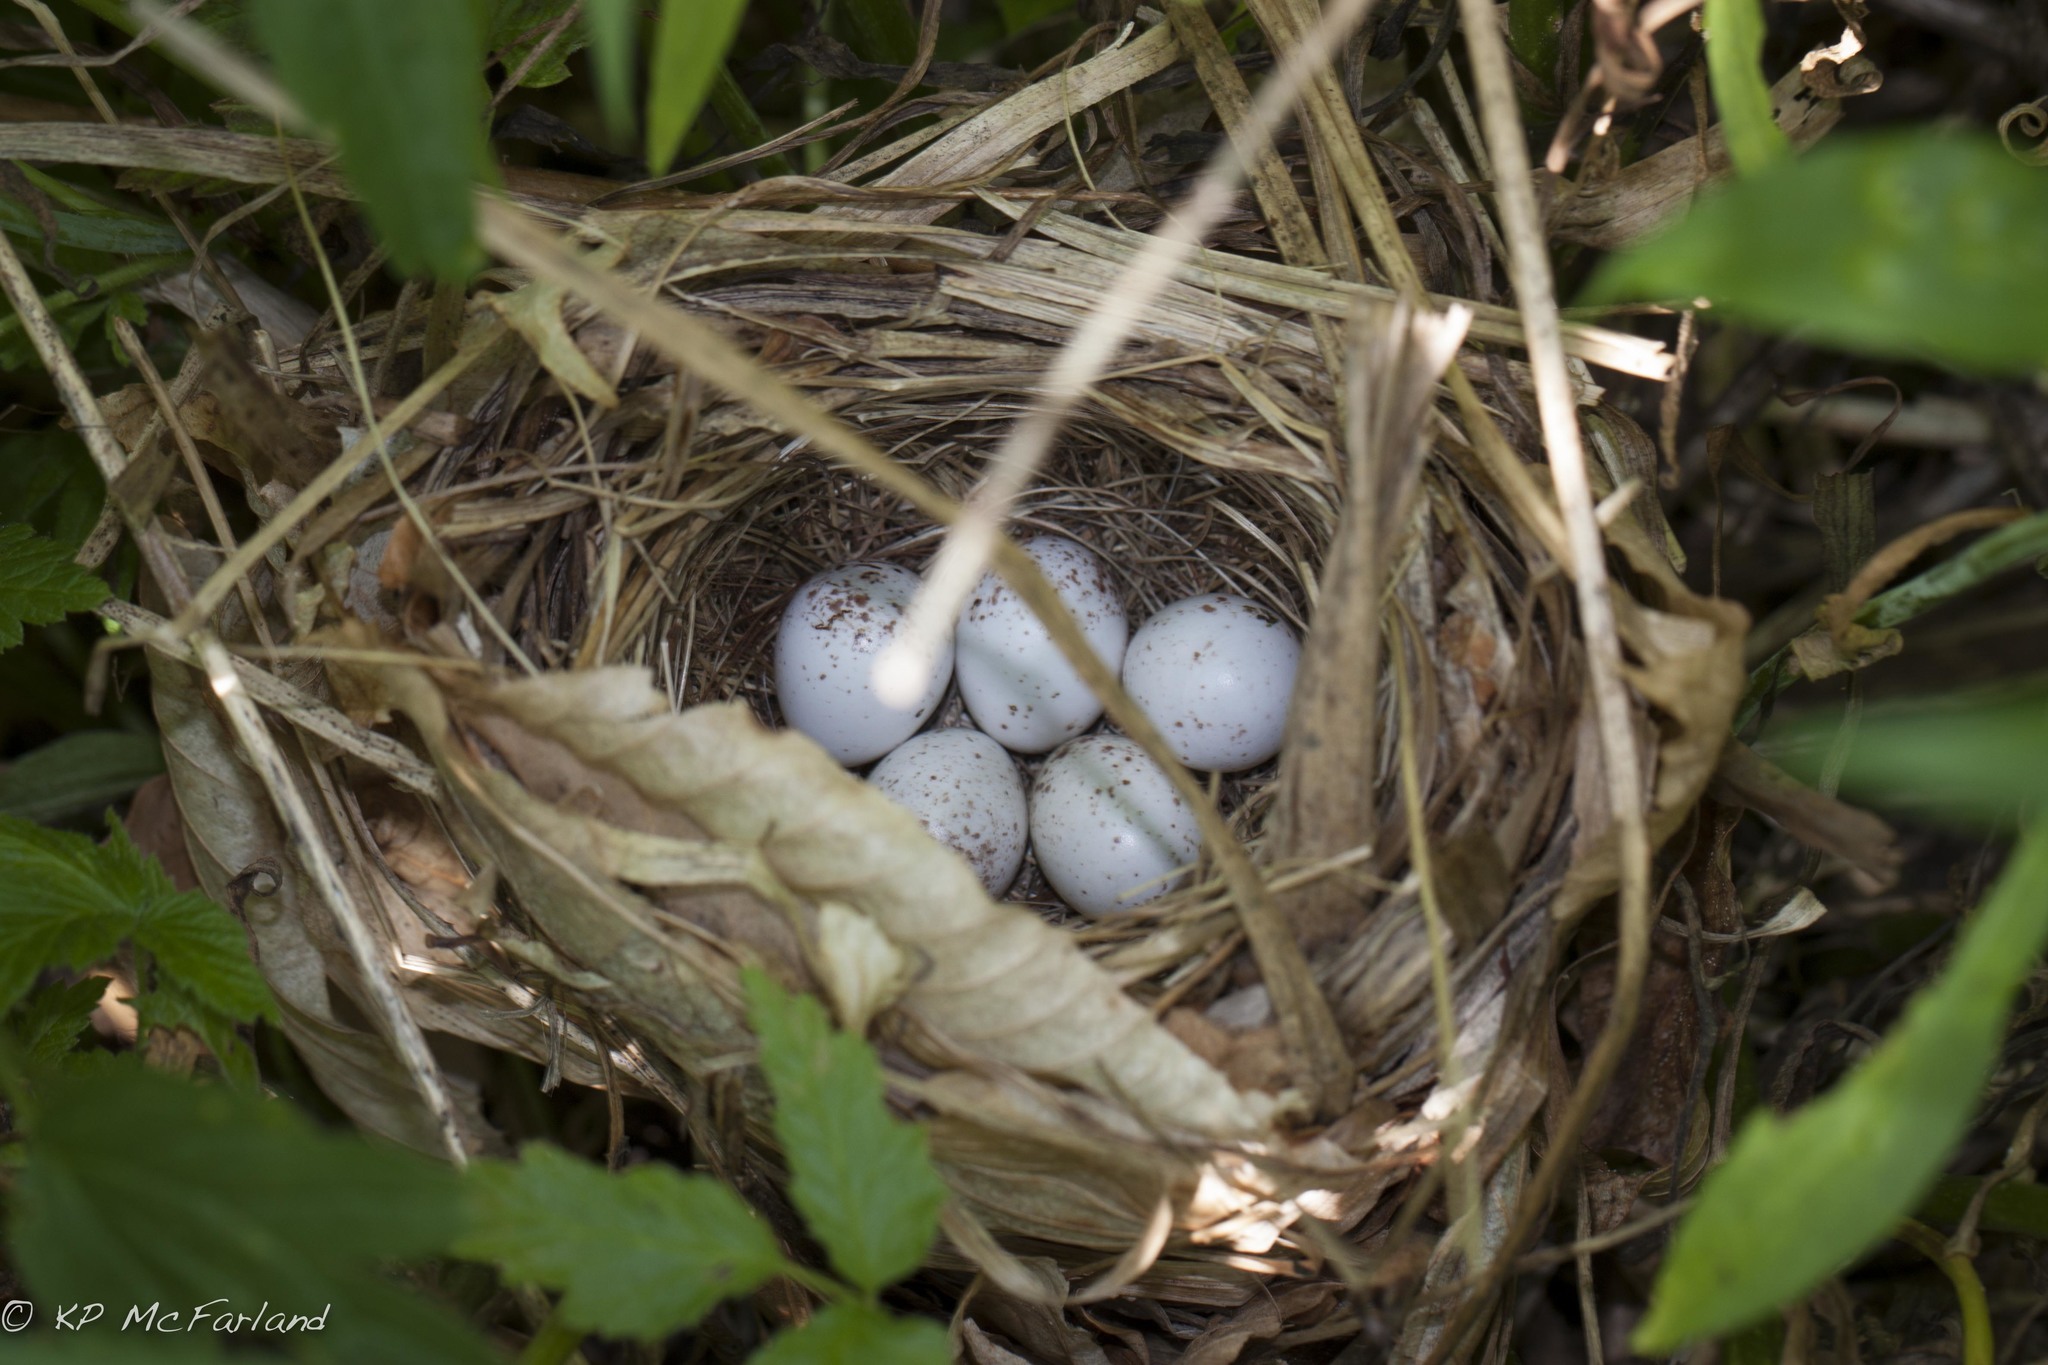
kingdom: Animalia
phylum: Chordata
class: Aves
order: Passeriformes
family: Parulidae
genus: Geothlypis
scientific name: Geothlypis trichas
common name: Common yellowthroat
